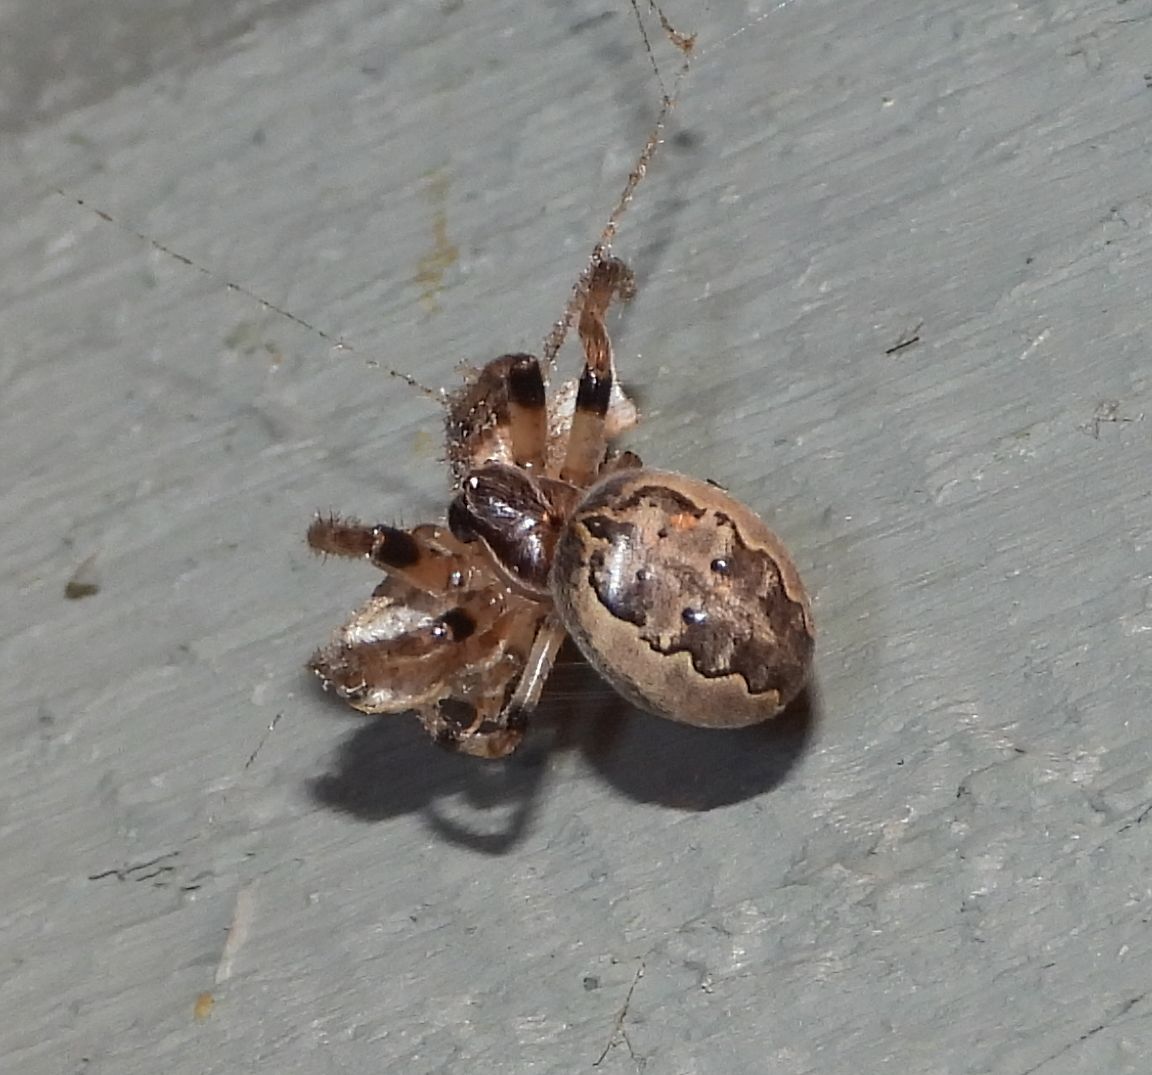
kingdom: Animalia
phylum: Arthropoda
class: Arachnida
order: Araneae
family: Araneidae
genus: Larinioides
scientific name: Larinioides cornutus
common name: Furrow orbweaver
